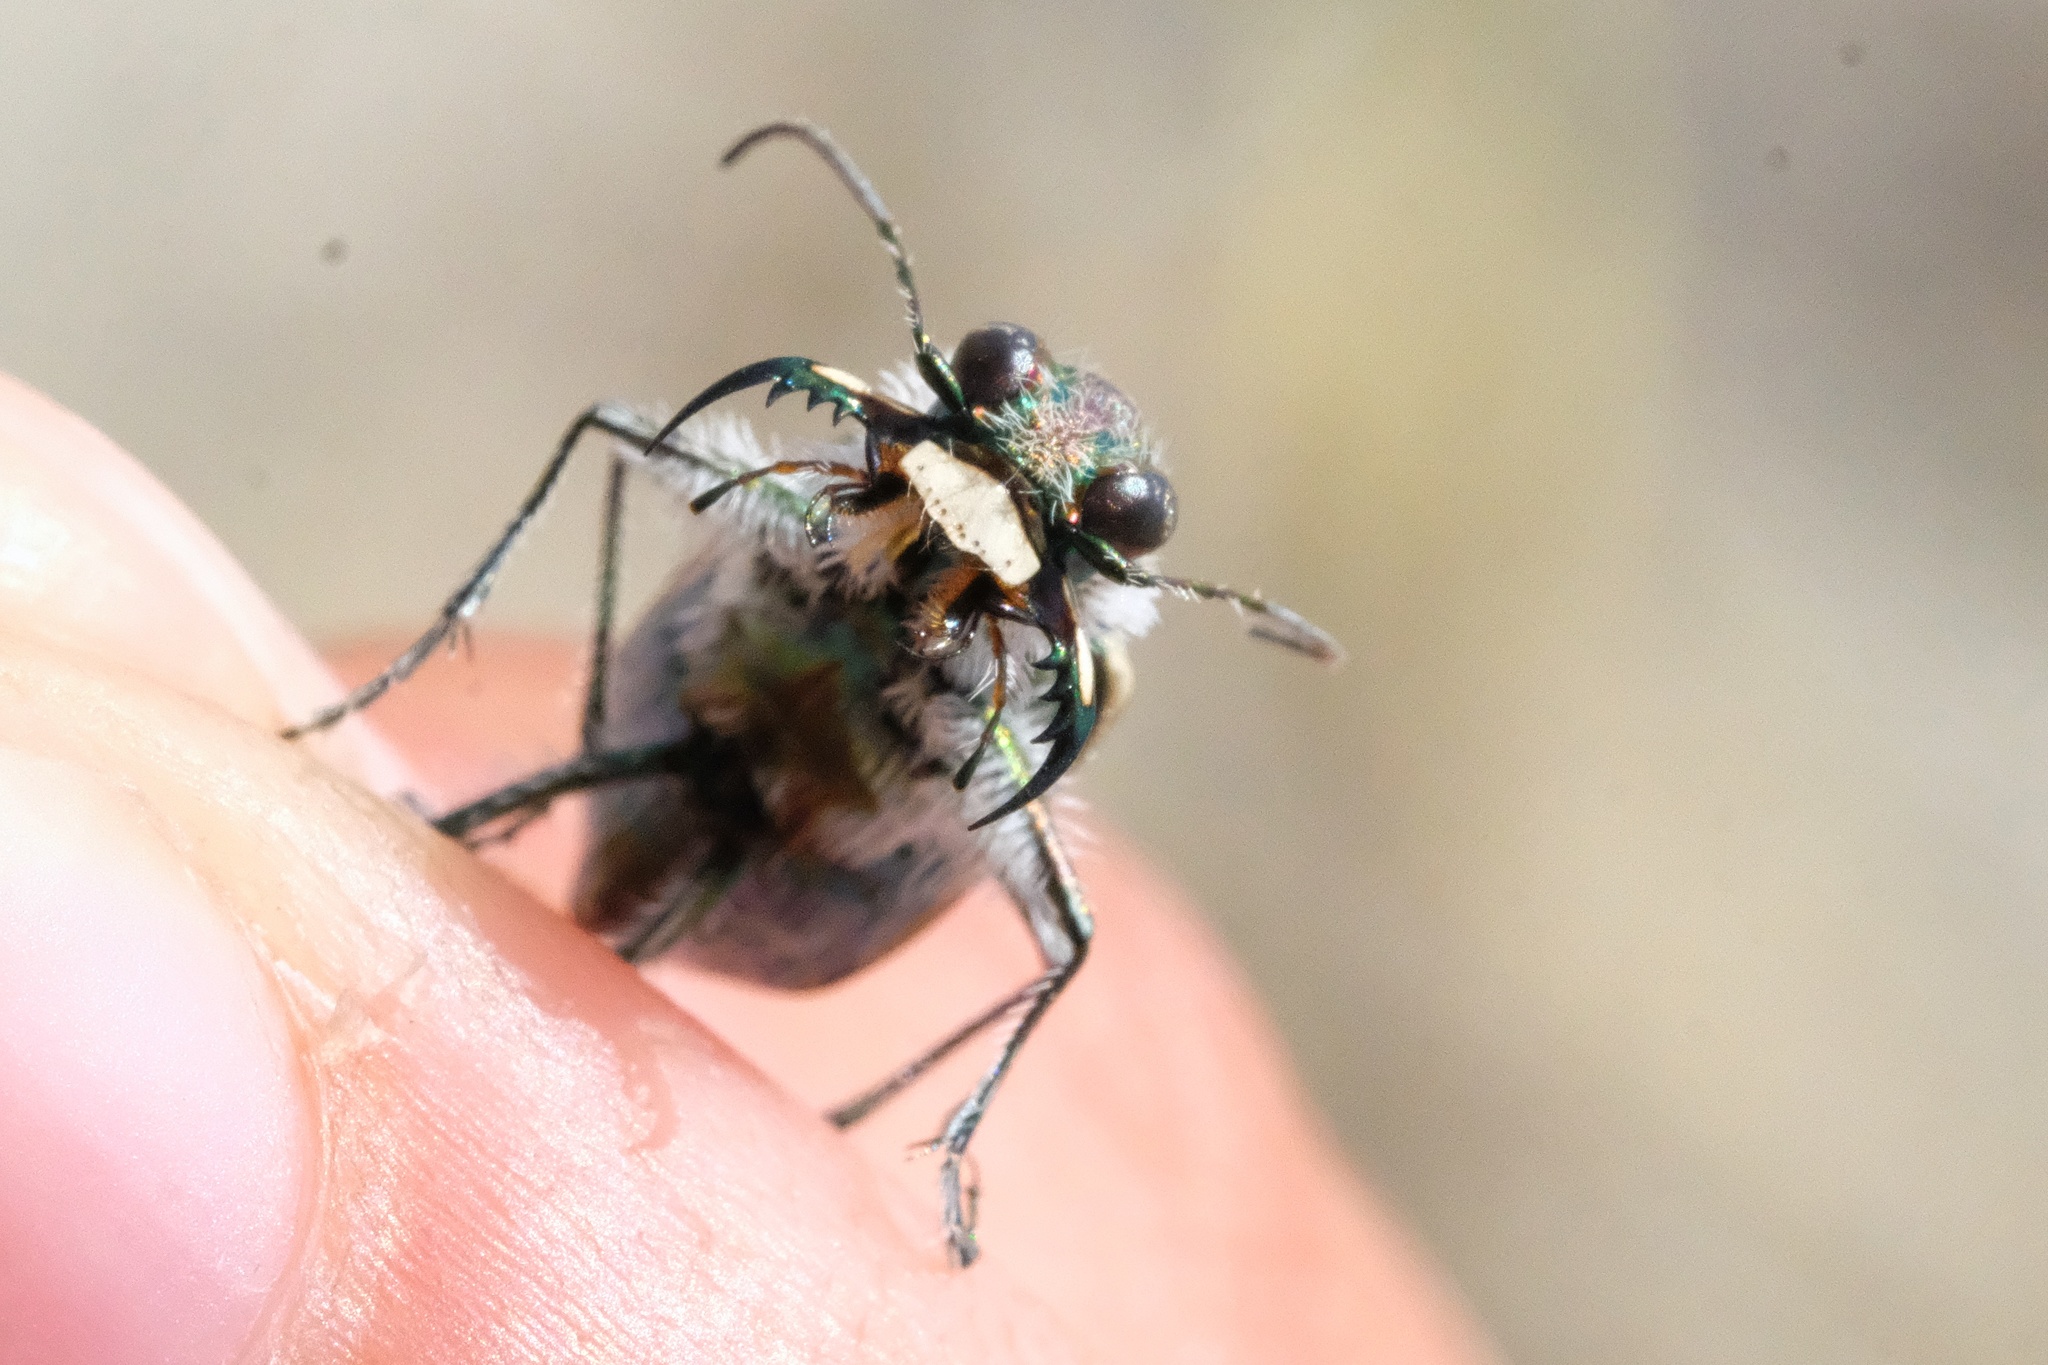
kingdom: Animalia
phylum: Arthropoda
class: Insecta
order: Coleoptera
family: Carabidae
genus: Cicindela
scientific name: Cicindela hirticollis
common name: Hairy-necked tiger beetle
